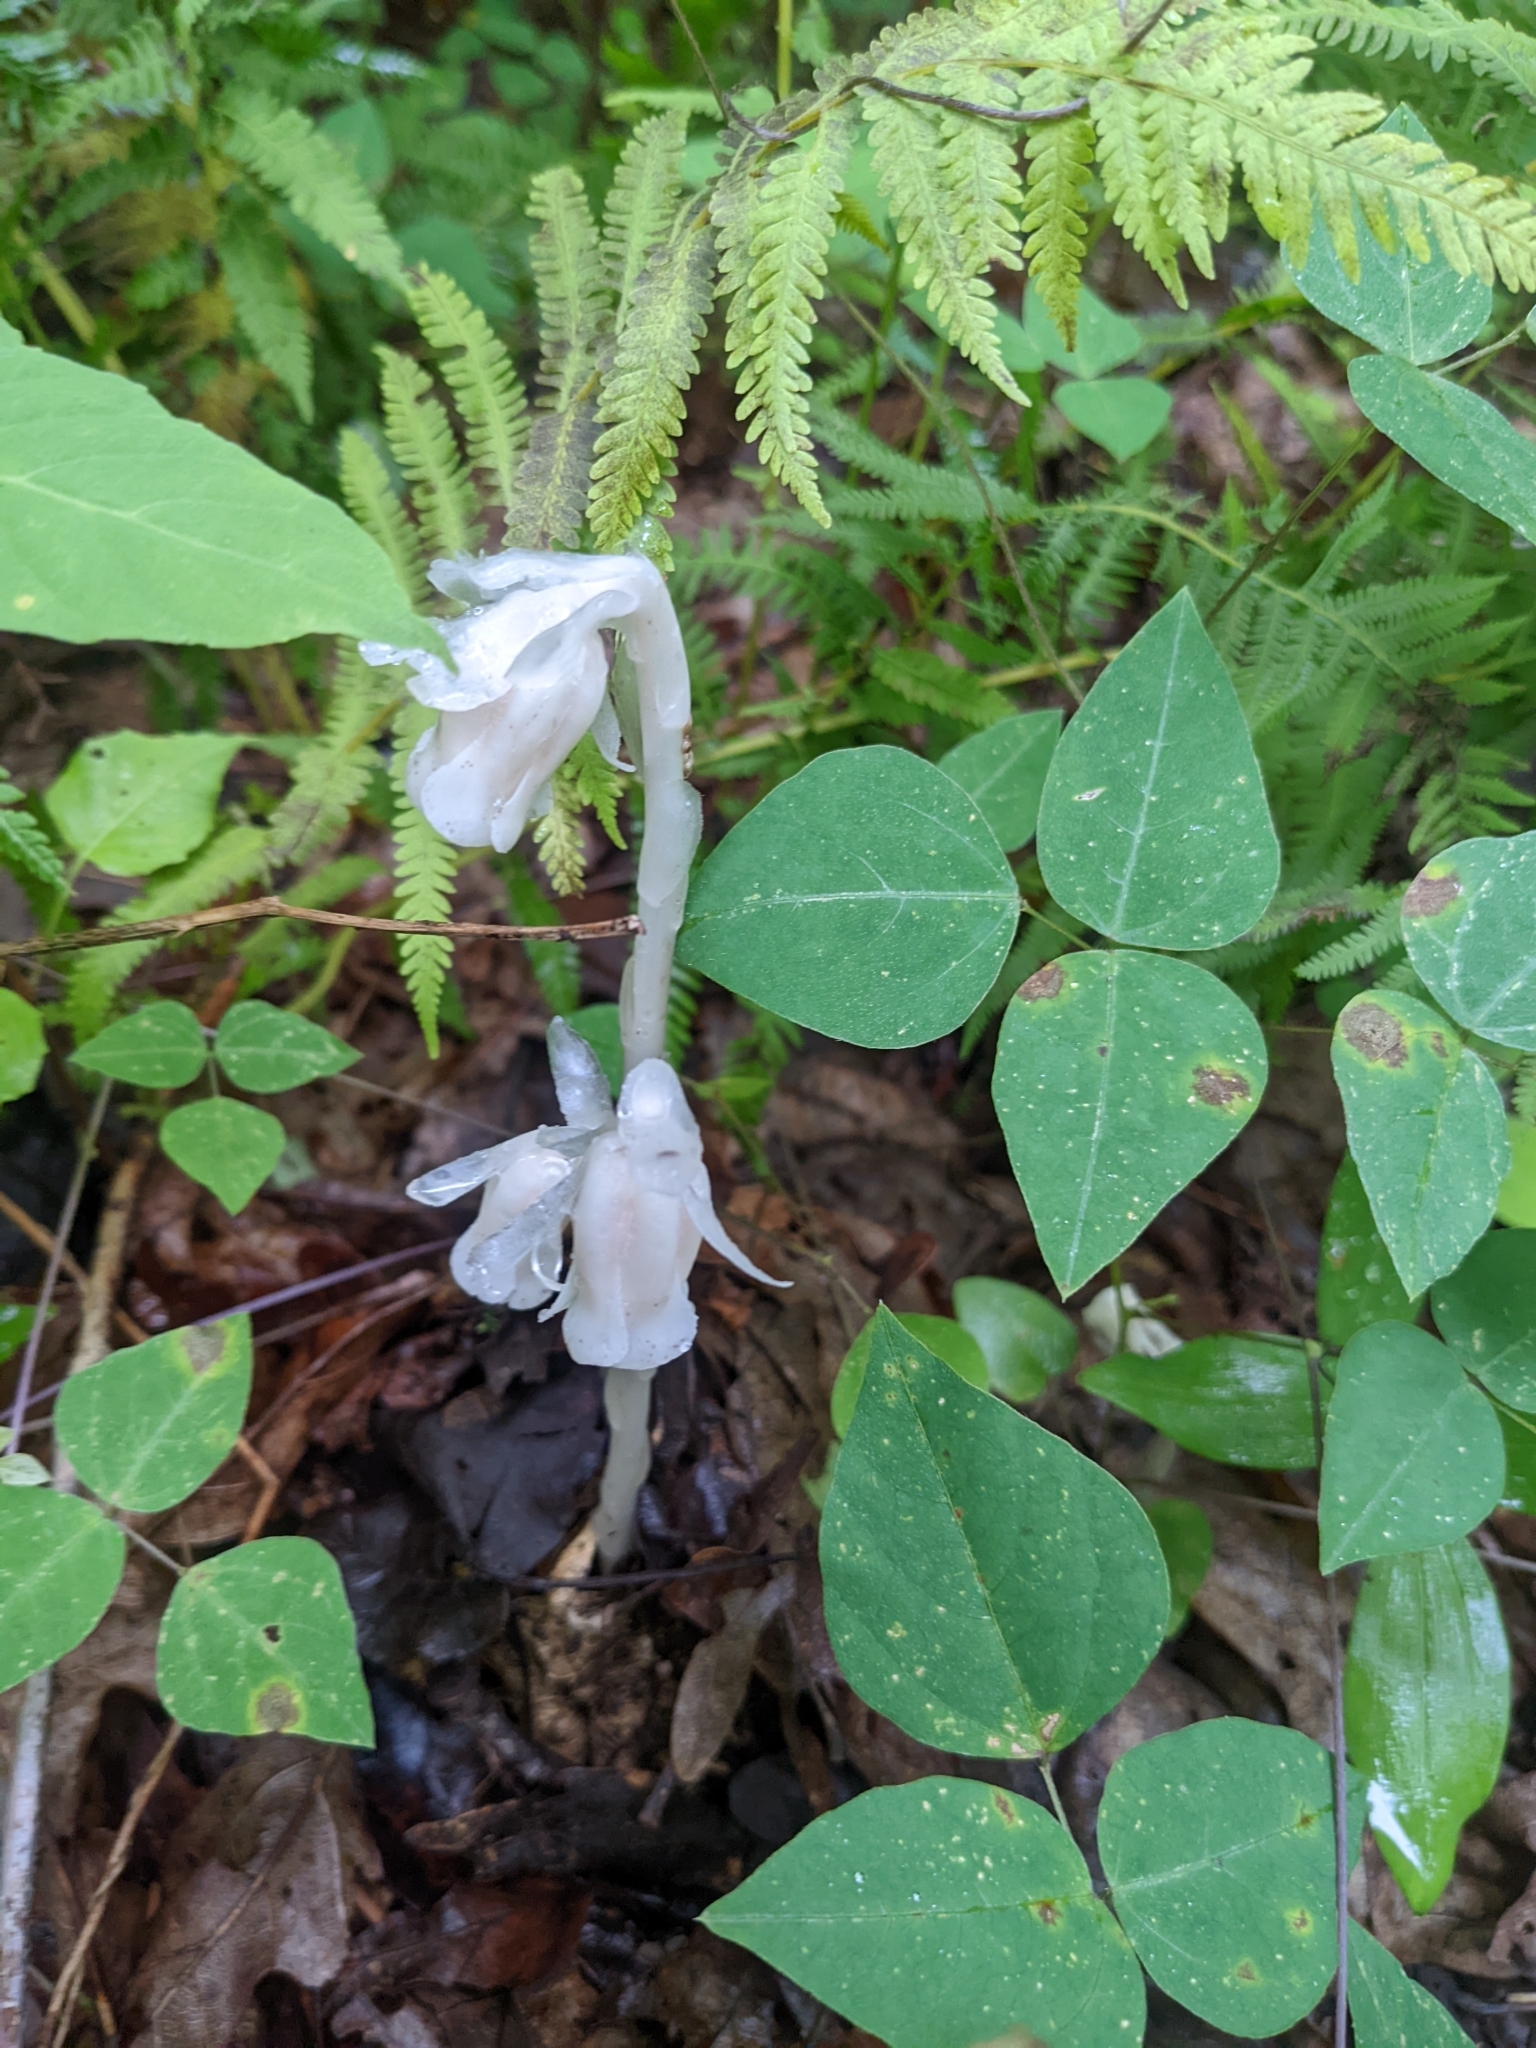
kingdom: Plantae
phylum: Tracheophyta
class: Magnoliopsida
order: Ericales
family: Ericaceae
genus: Monotropa
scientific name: Monotropa uniflora
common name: Convulsion root
